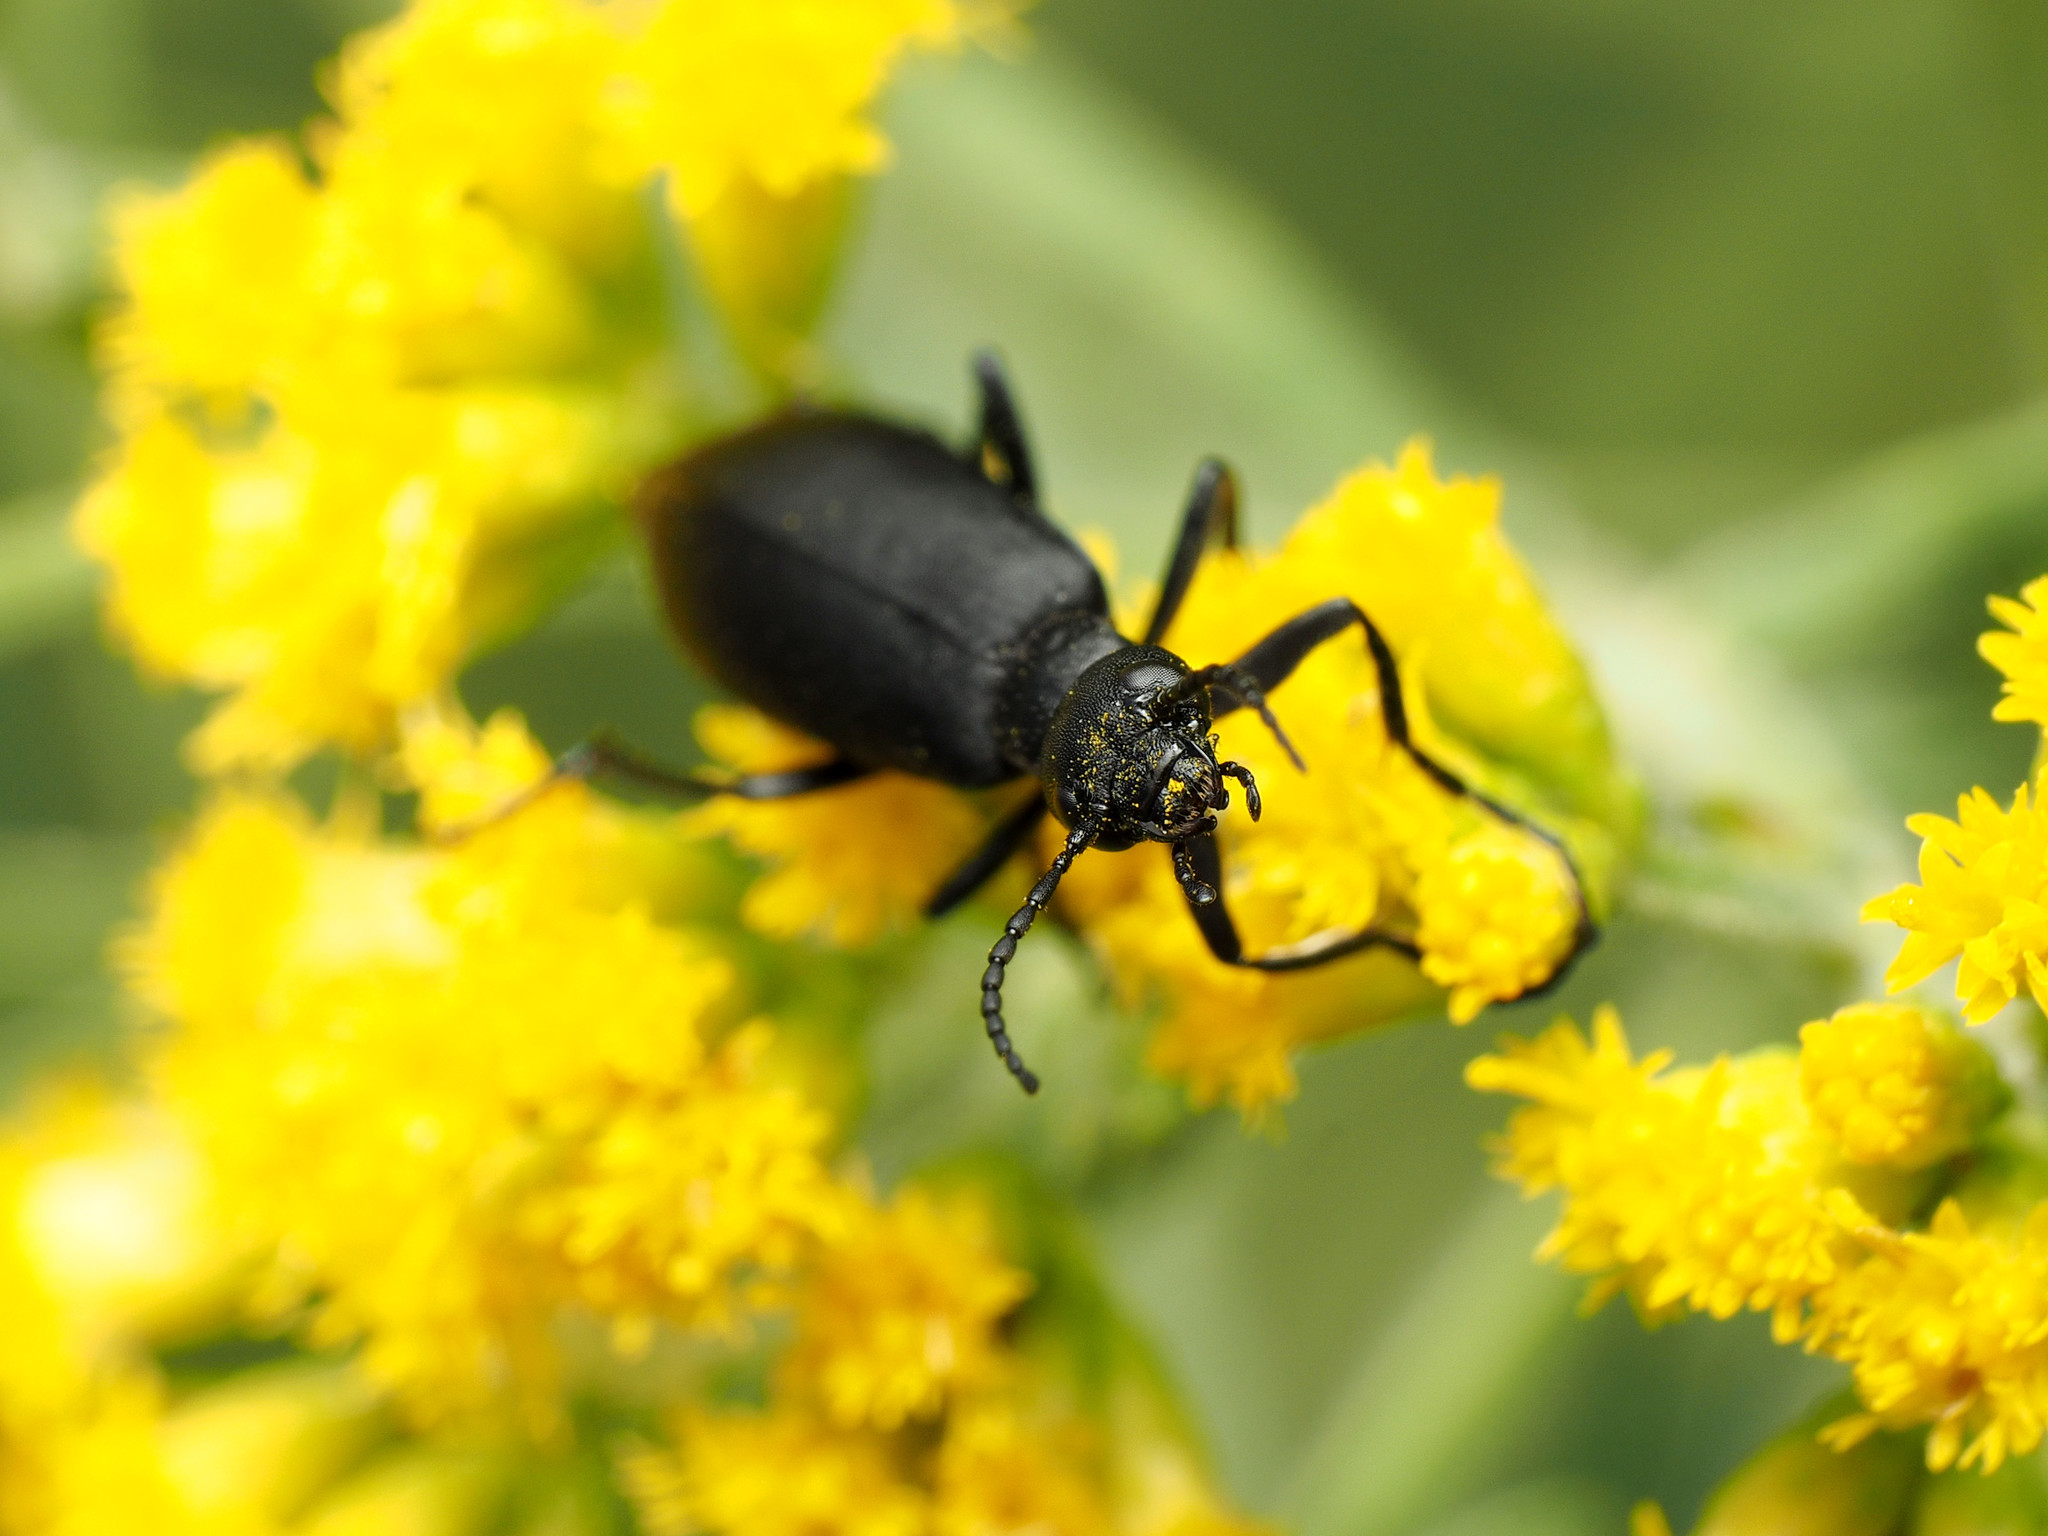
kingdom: Animalia
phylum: Arthropoda
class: Insecta
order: Coleoptera
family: Meloidae
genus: Epicauta
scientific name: Epicauta pensylvanica
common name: Black blister beetle
